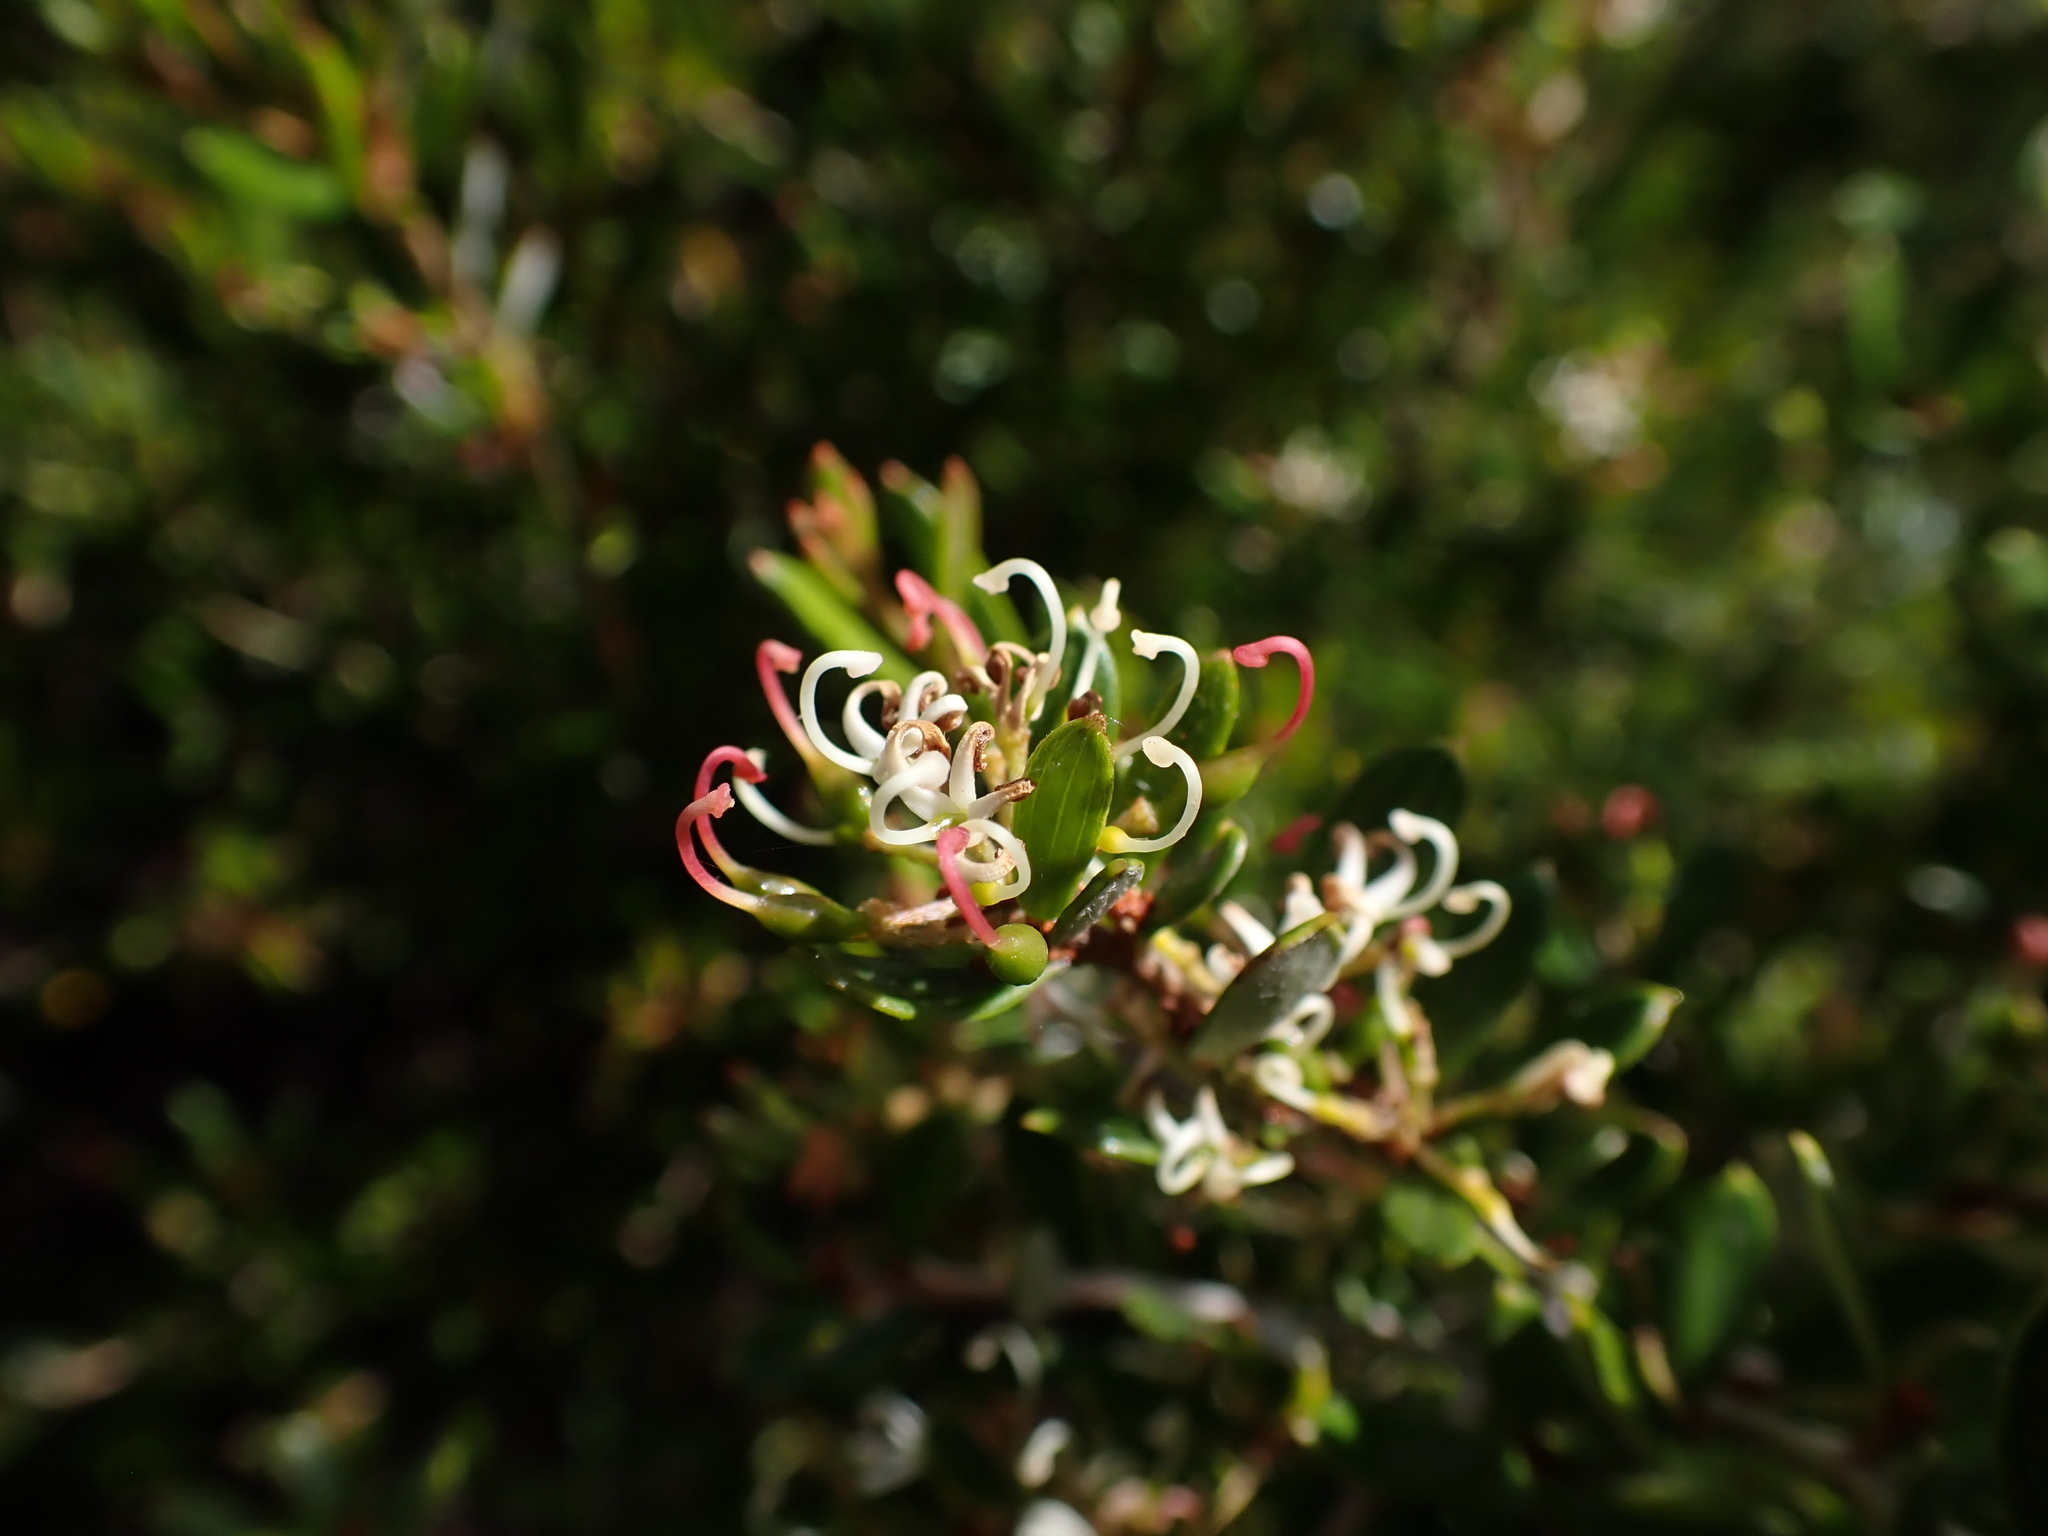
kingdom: Plantae
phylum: Tracheophyta
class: Magnoliopsida
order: Proteales
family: Proteaceae
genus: Grevillea
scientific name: Grevillea australis
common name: Alpine grevillea
